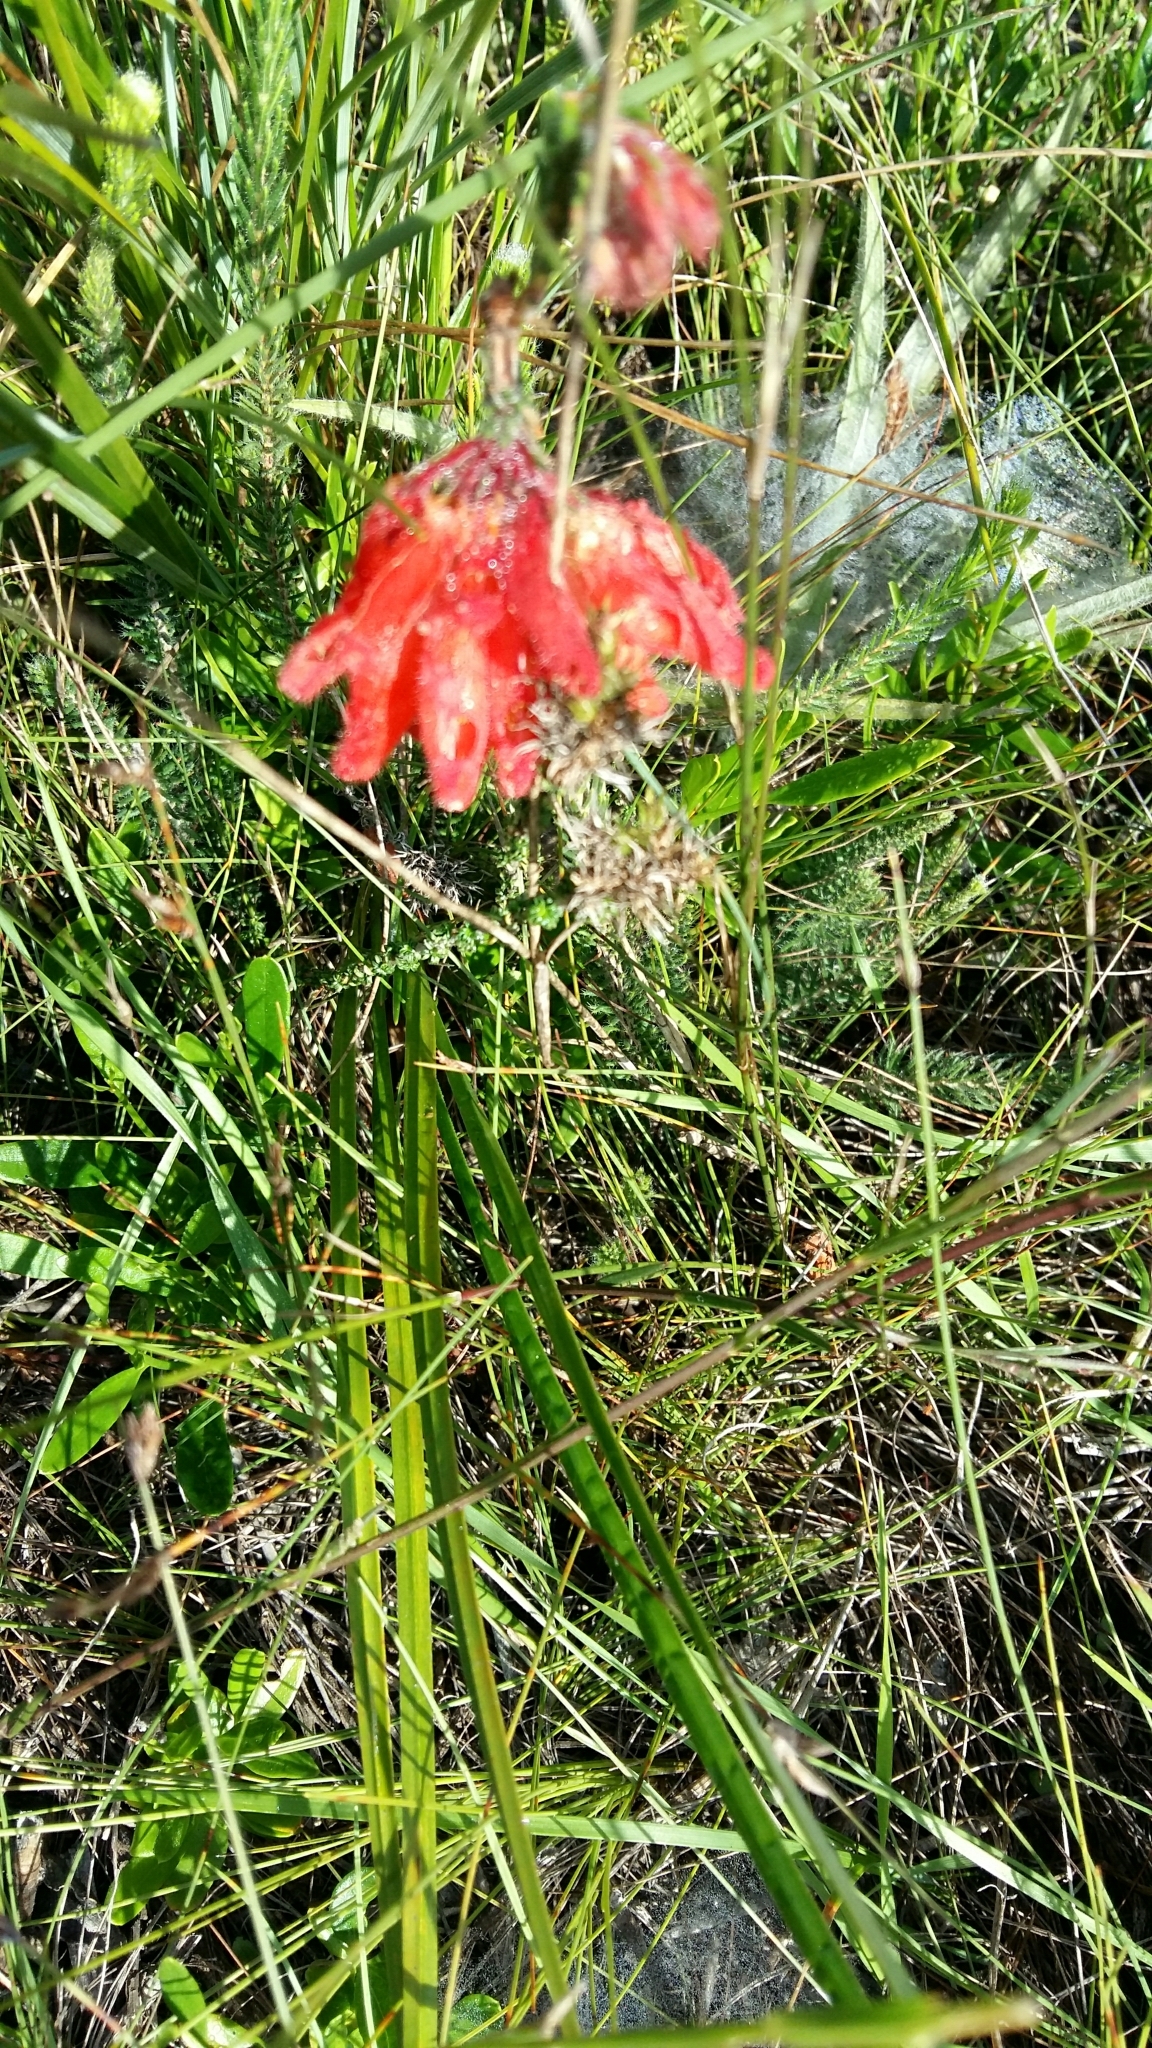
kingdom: Plantae
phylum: Tracheophyta
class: Magnoliopsida
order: Ericales
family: Ericaceae
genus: Erica
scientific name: Erica cerinthoides
